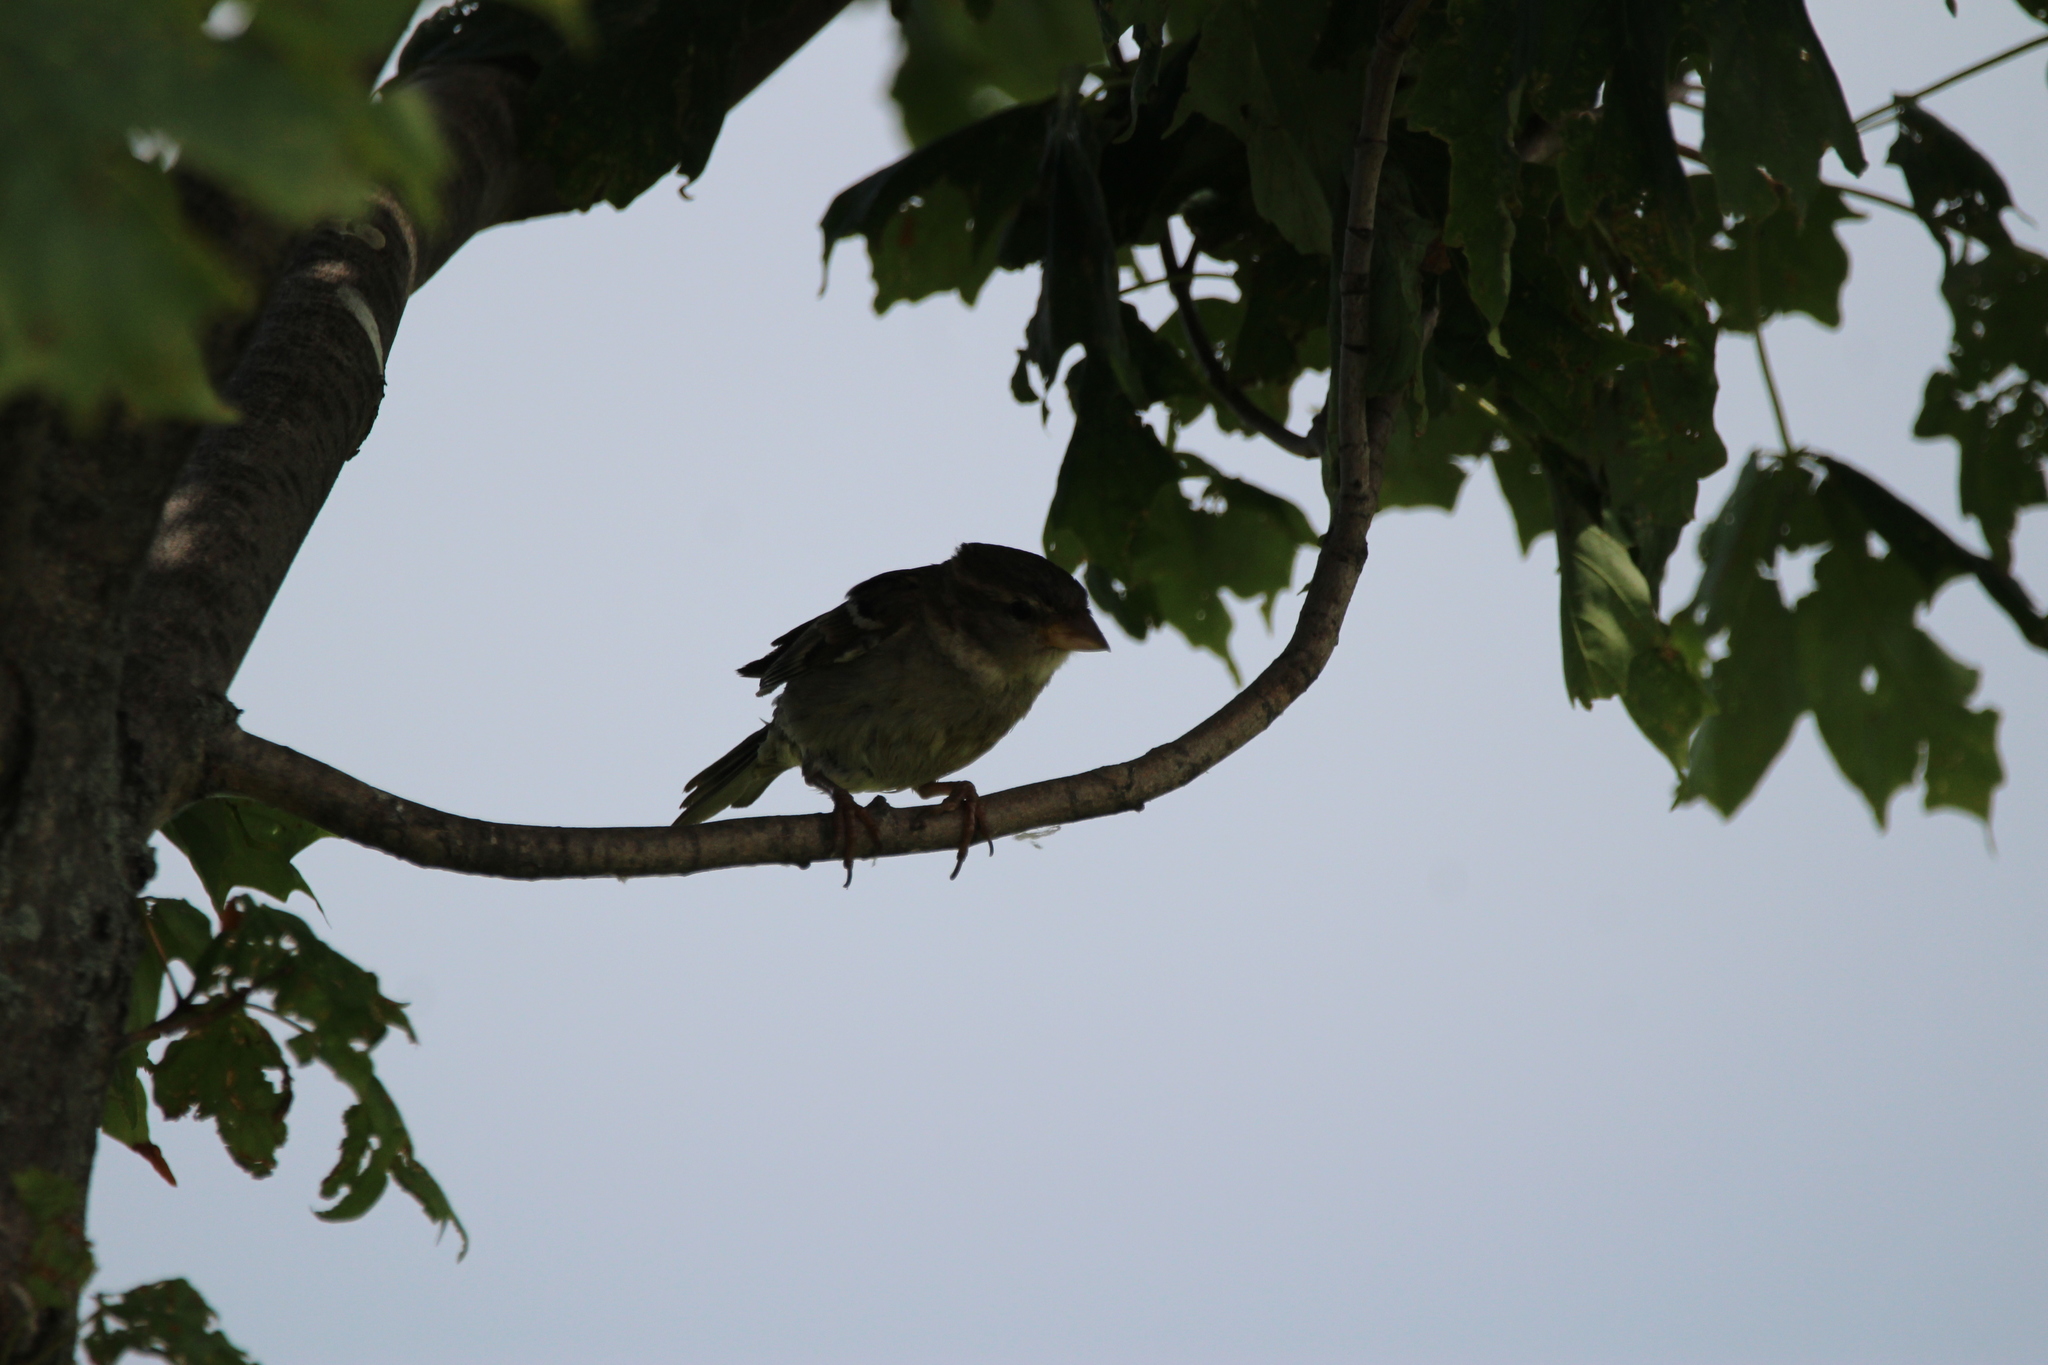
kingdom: Animalia
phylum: Chordata
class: Aves
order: Passeriformes
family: Passeridae
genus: Passer
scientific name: Passer domesticus
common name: House sparrow
